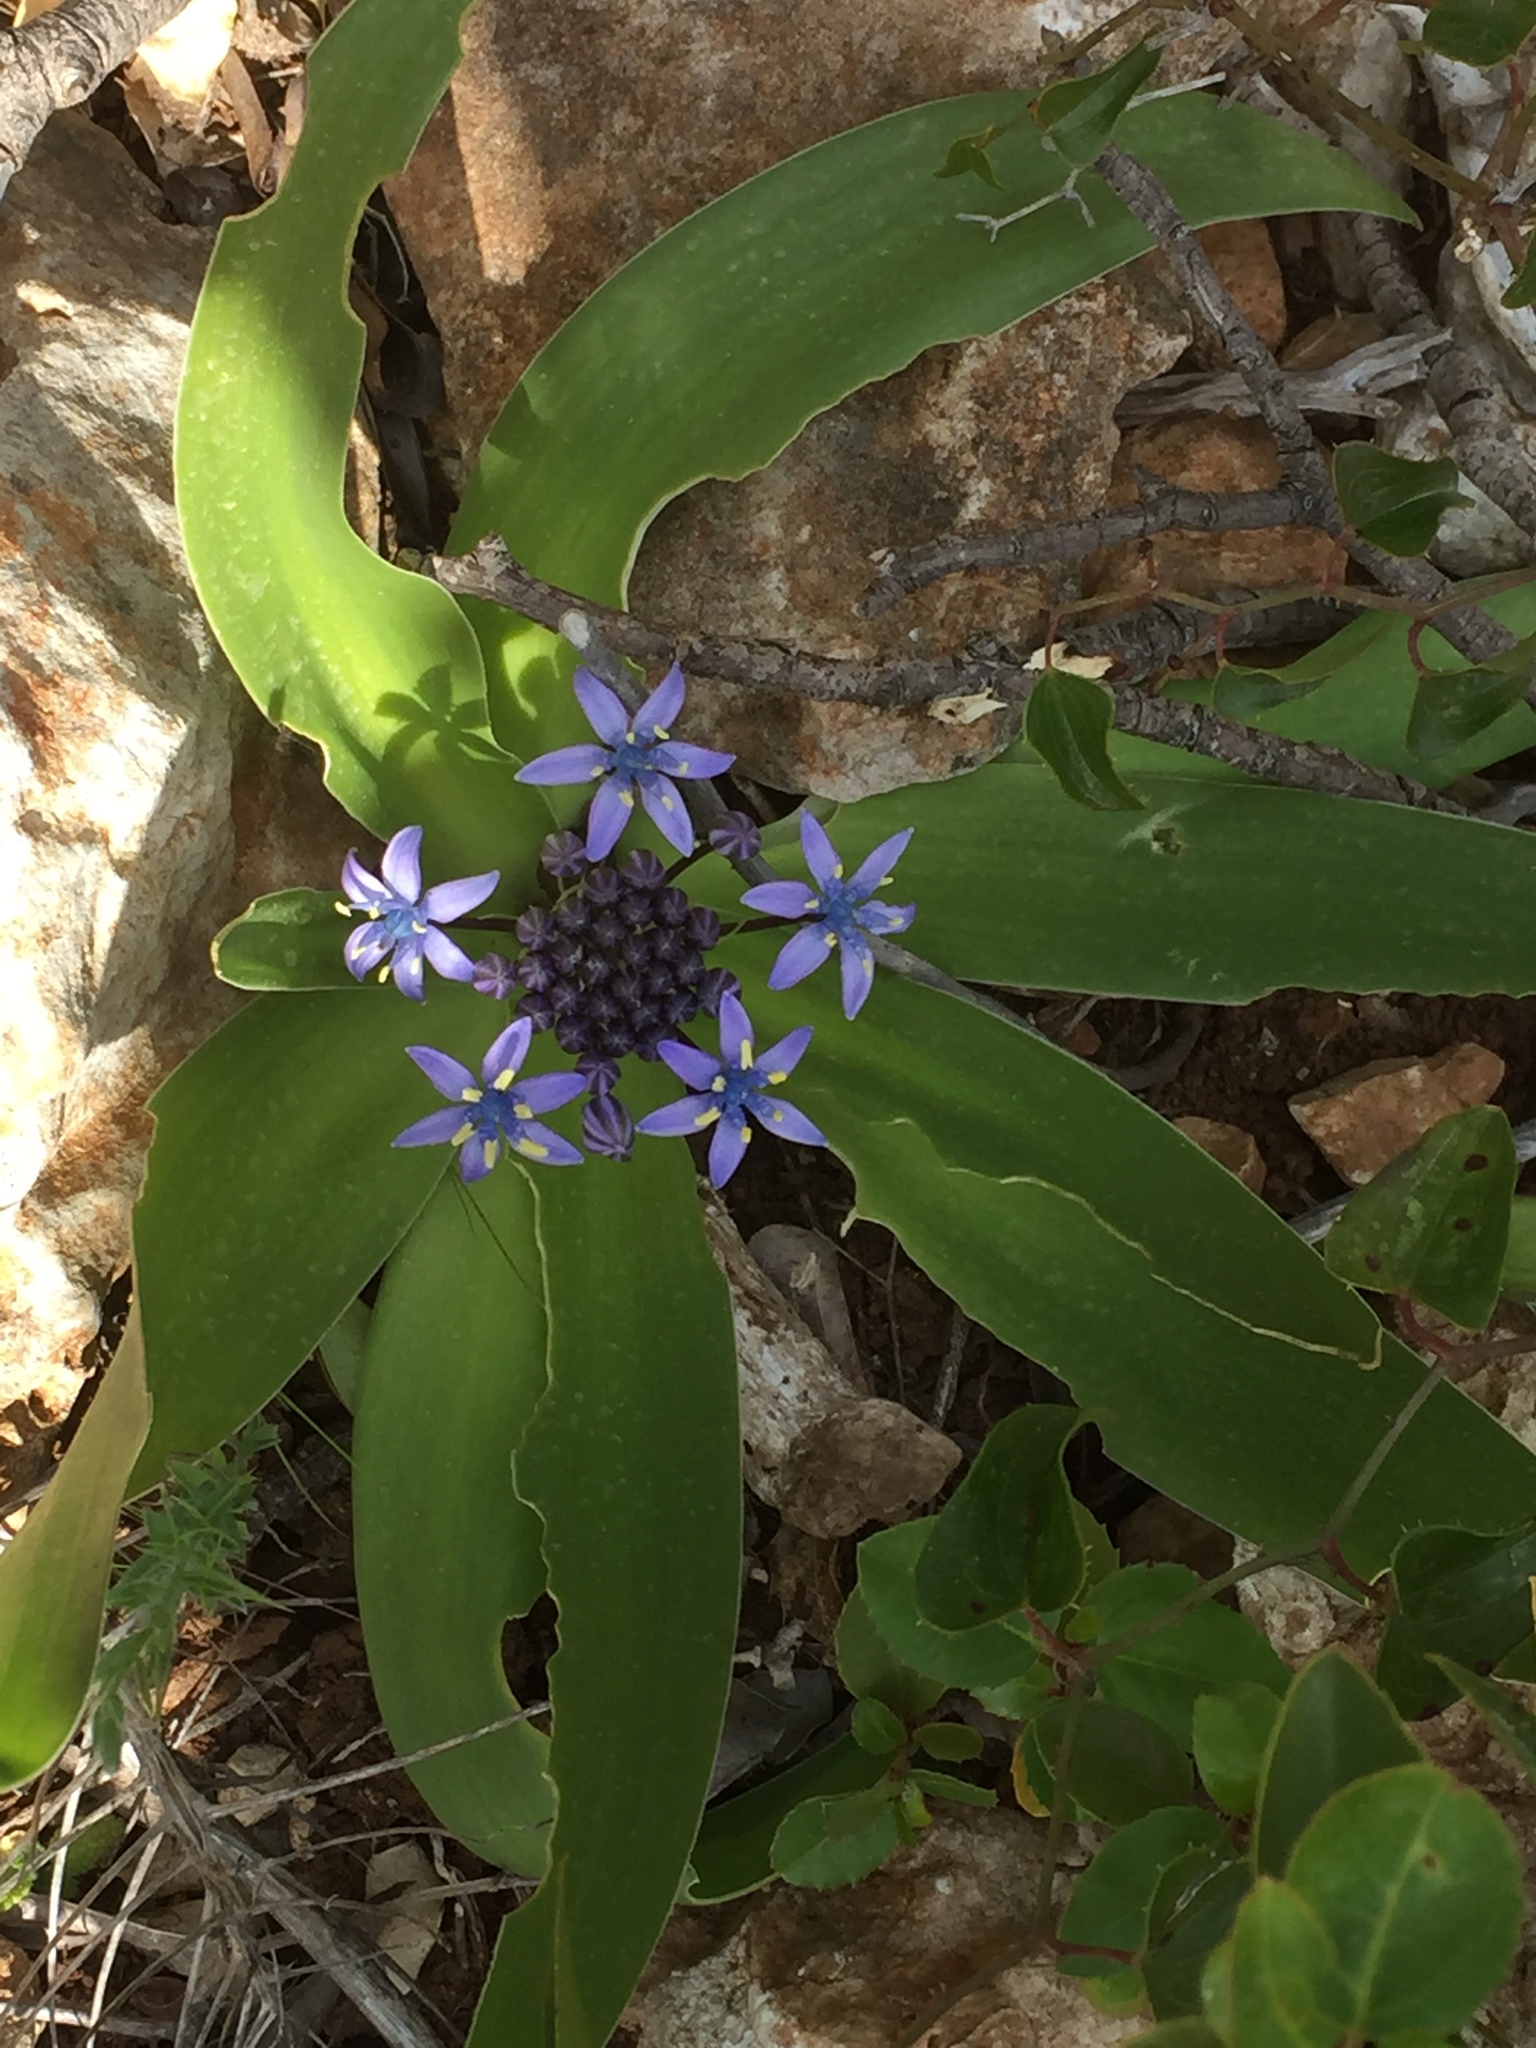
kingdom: Plantae
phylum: Tracheophyta
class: Liliopsida
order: Asparagales
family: Asparagaceae
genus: Scilla
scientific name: Scilla peruviana
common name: Portuguese squill
